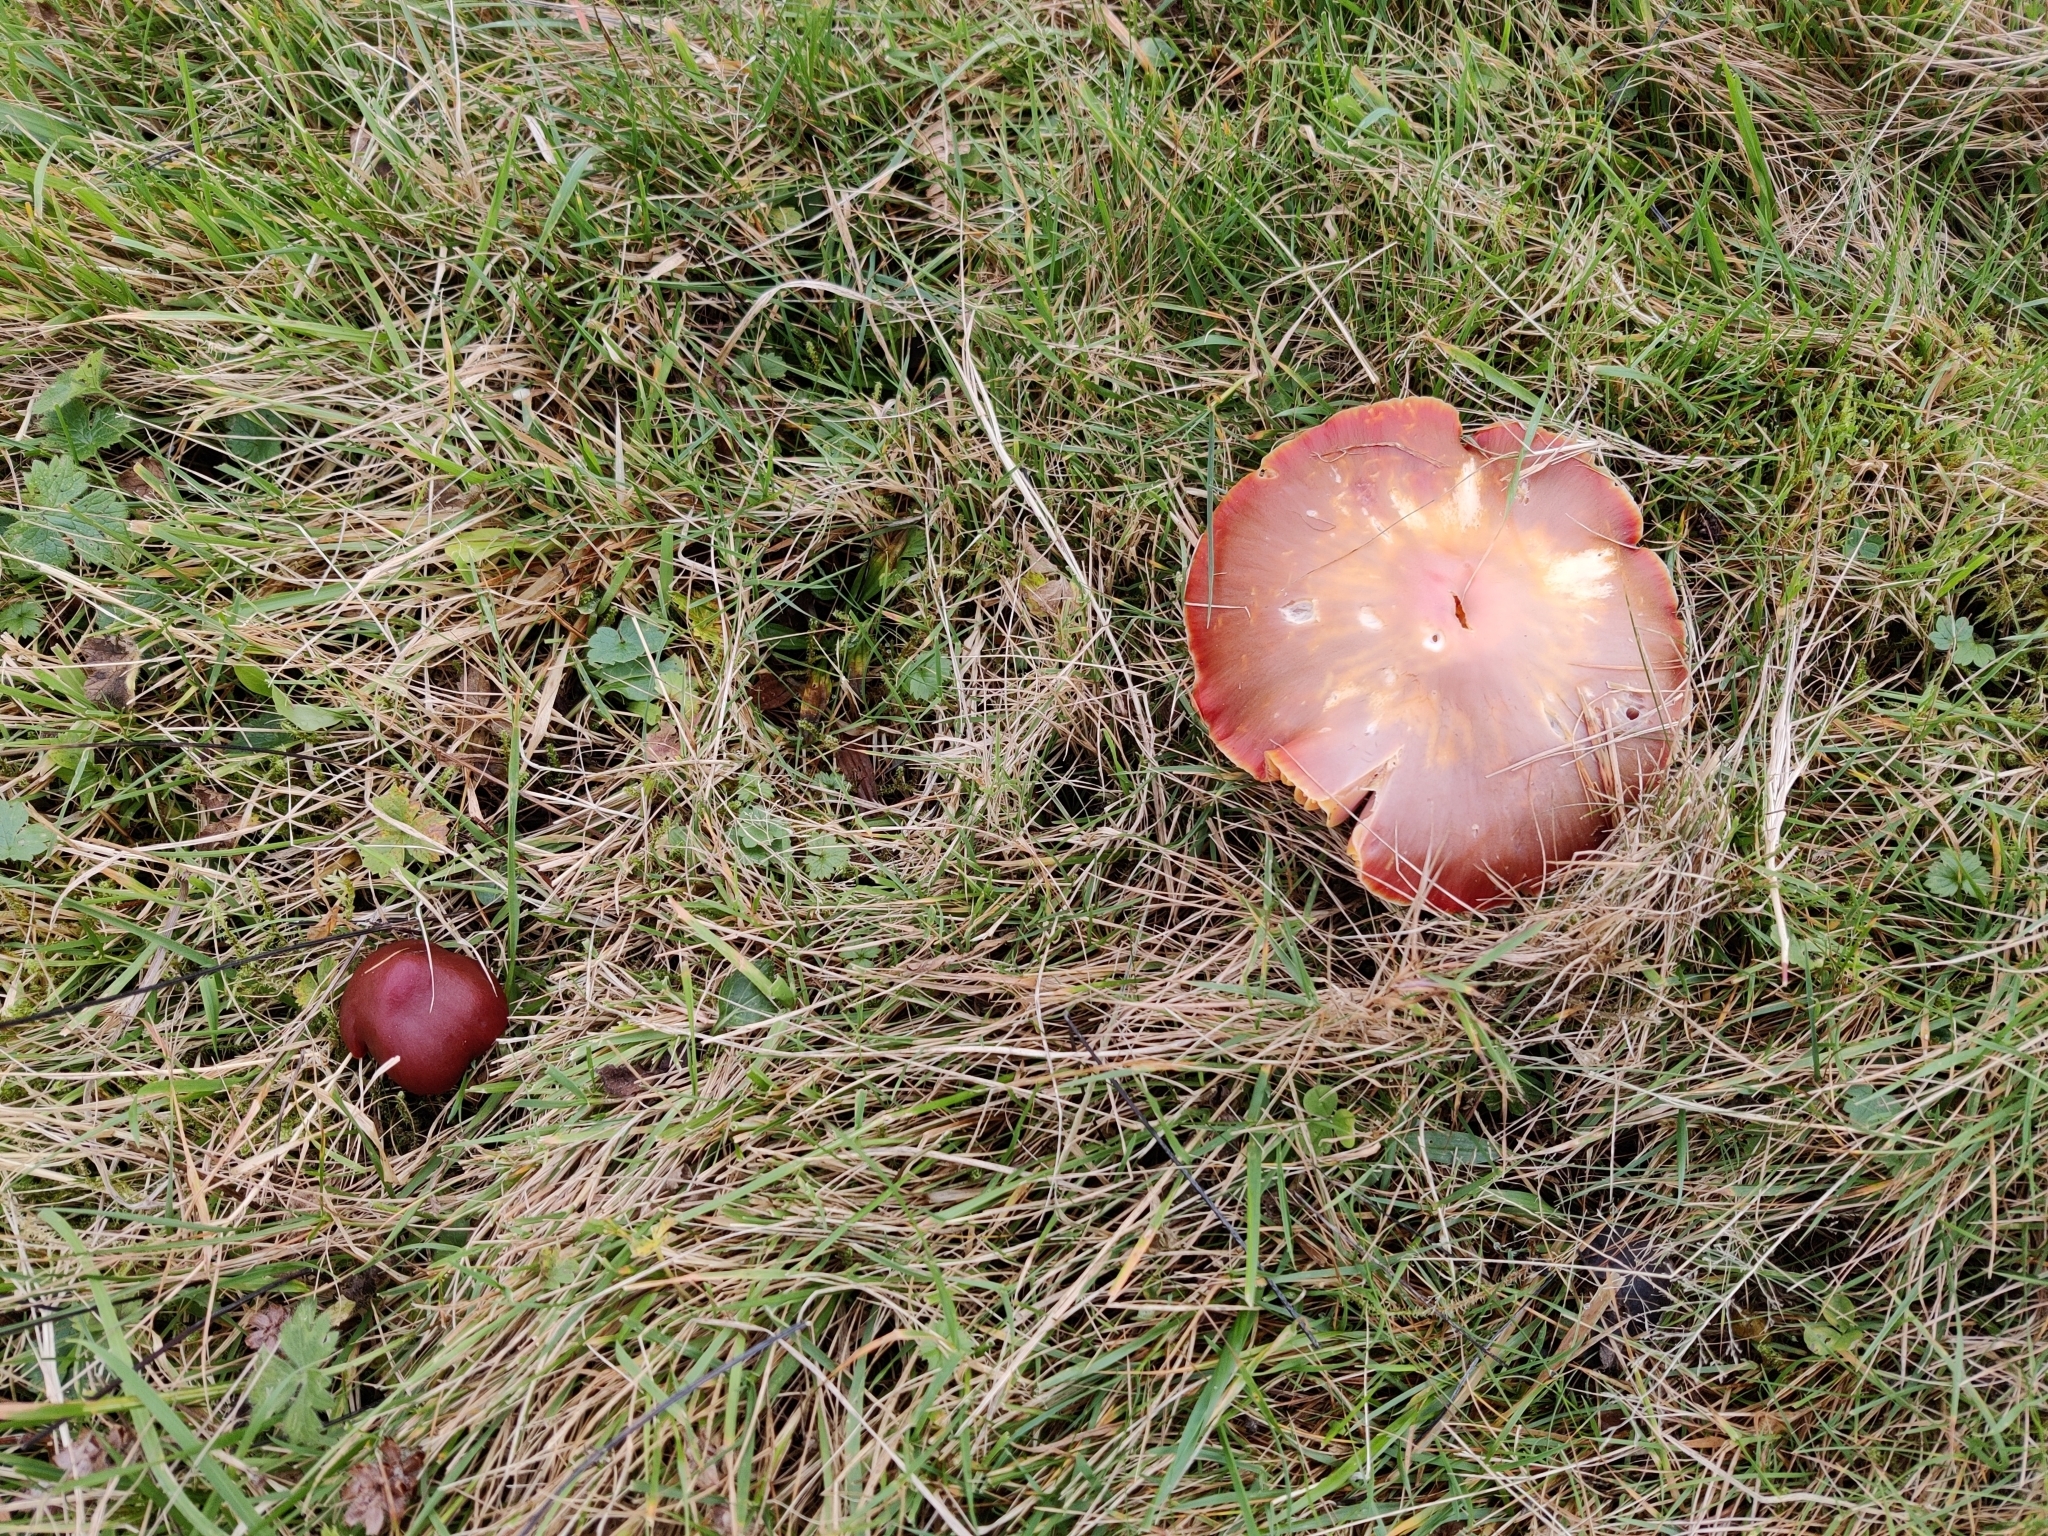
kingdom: Fungi
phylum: Basidiomycota
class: Agaricomycetes
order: Agaricales
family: Hygrophoraceae
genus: Hygrocybe
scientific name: Hygrocybe punicea
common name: Crimson waxcap
